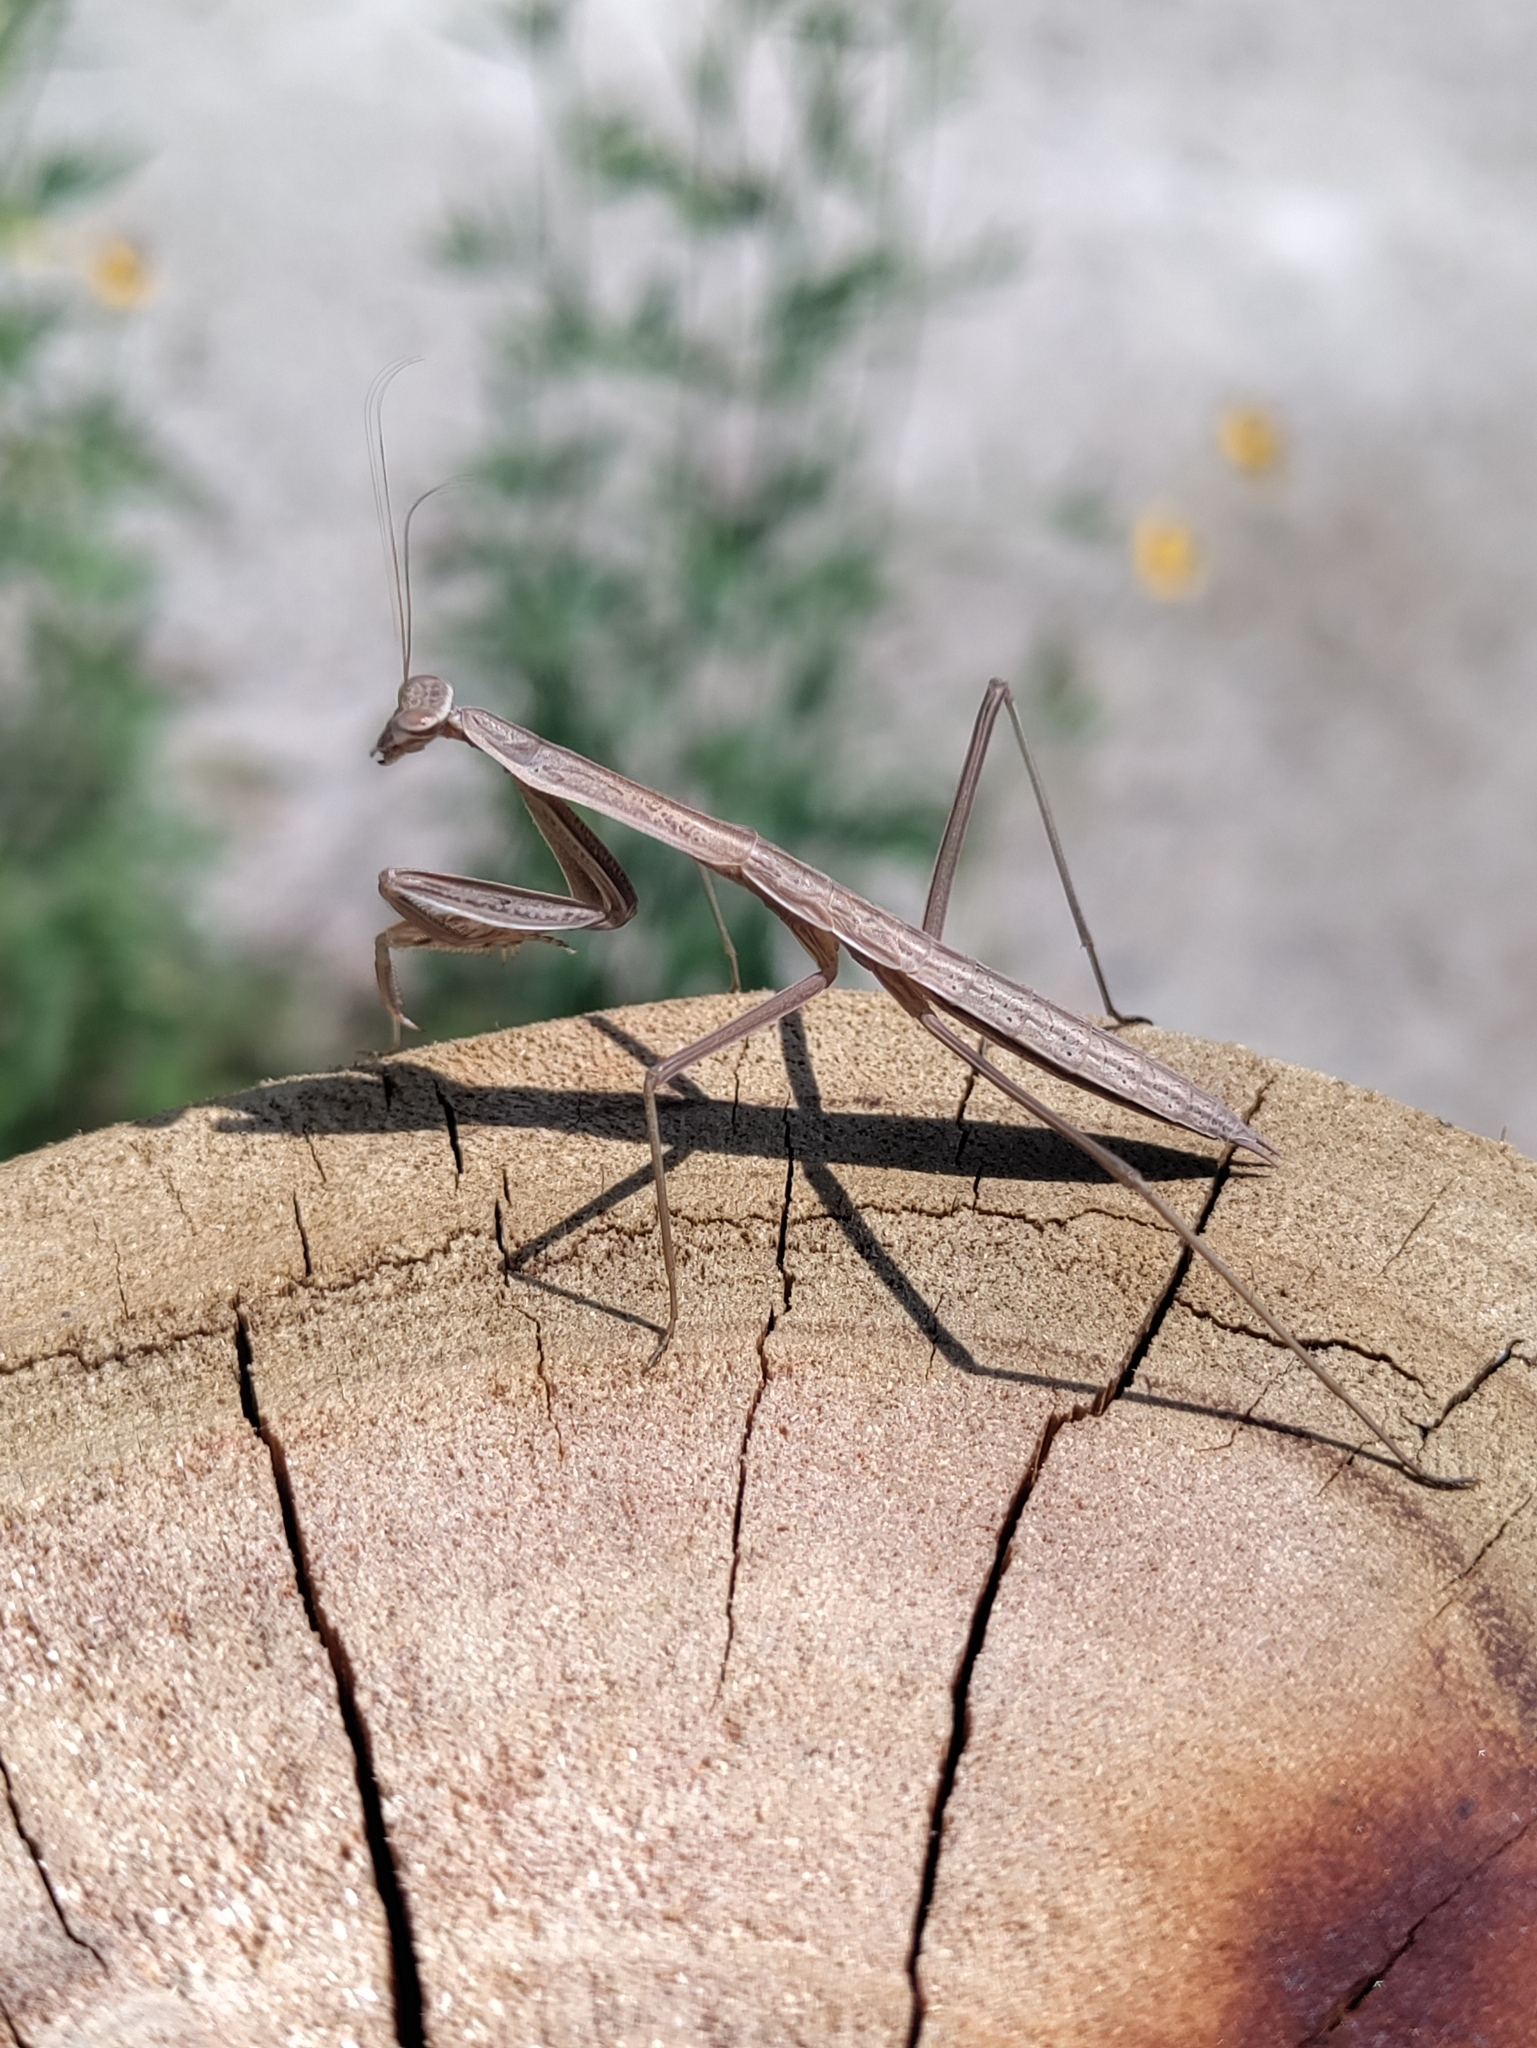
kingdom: Animalia
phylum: Arthropoda
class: Insecta
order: Mantodea
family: Mantidae
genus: Tenodera
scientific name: Tenodera sinensis
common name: Chinese mantis
